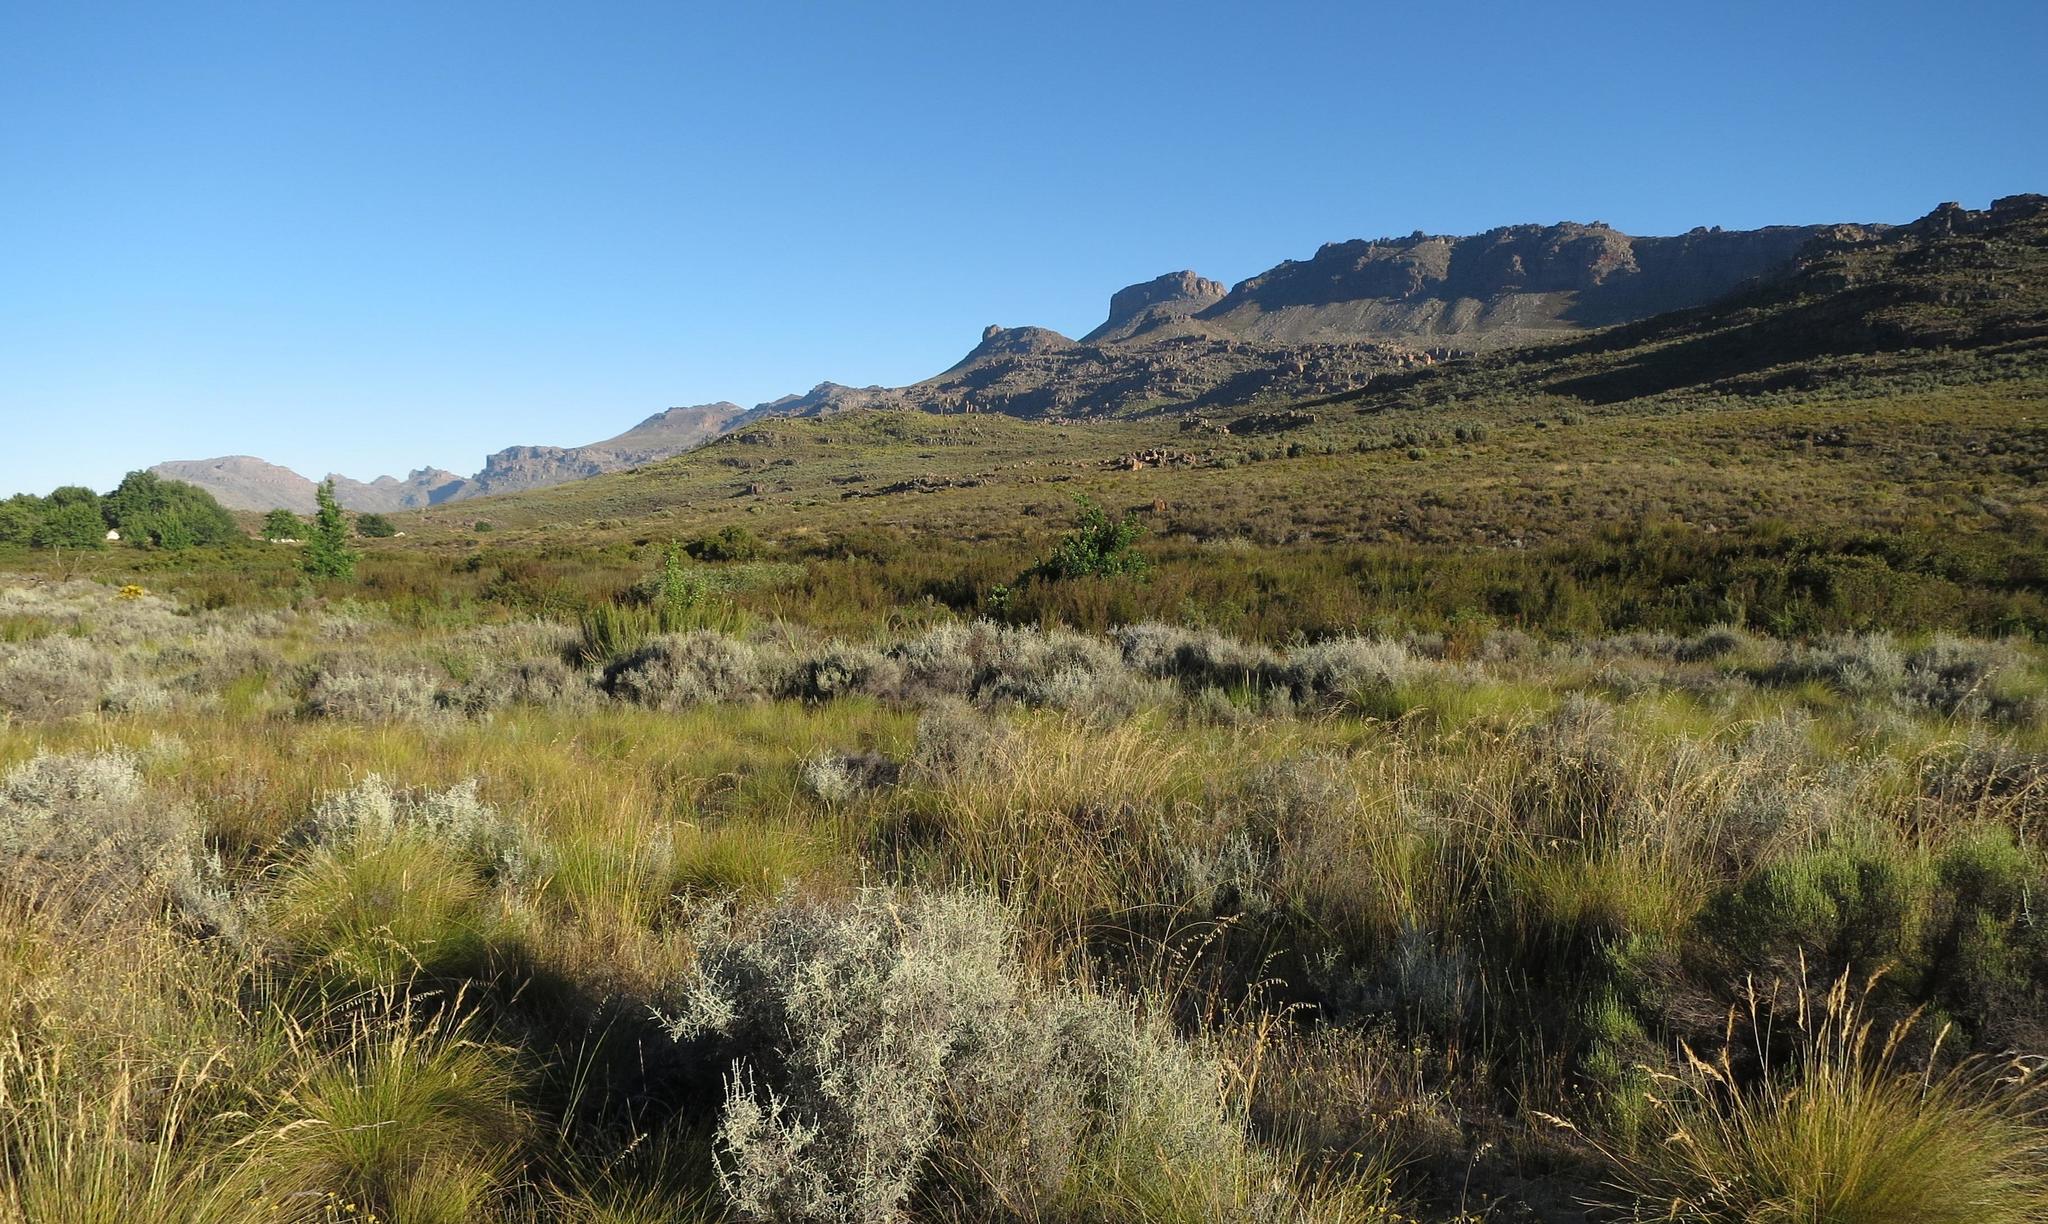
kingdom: Plantae
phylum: Tracheophyta
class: Magnoliopsida
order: Fagales
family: Fagaceae
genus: Quercus
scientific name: Quercus robur
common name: Pedunculate oak
